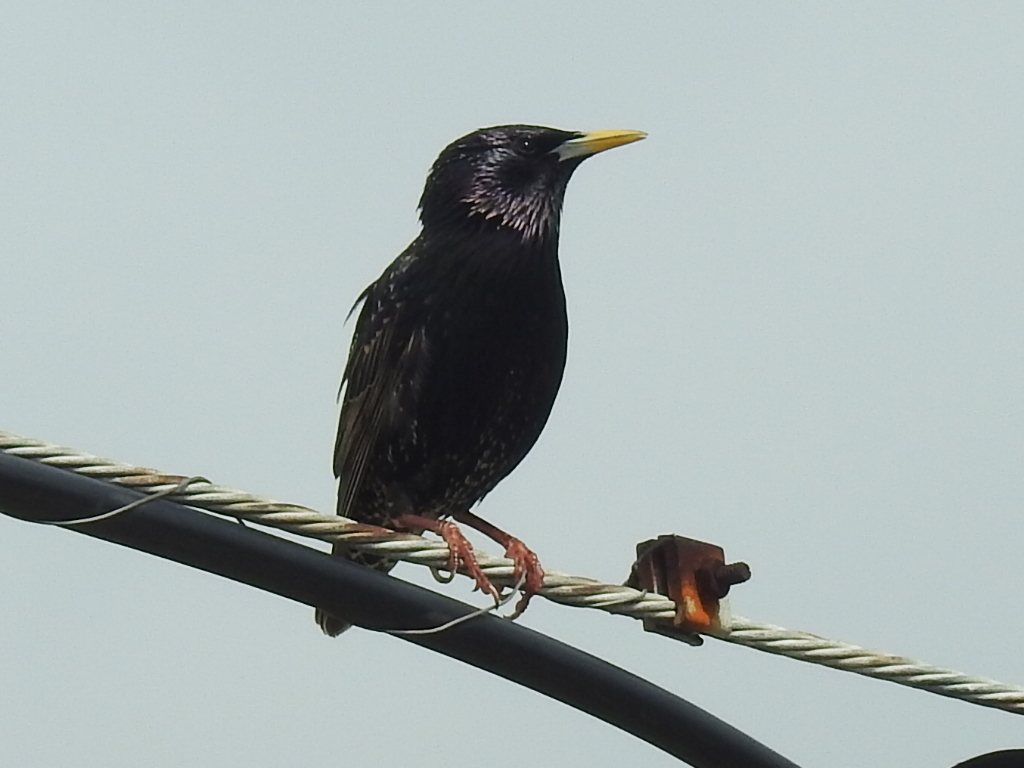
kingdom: Animalia
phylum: Chordata
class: Aves
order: Passeriformes
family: Sturnidae
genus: Sturnus
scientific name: Sturnus vulgaris
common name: Common starling
